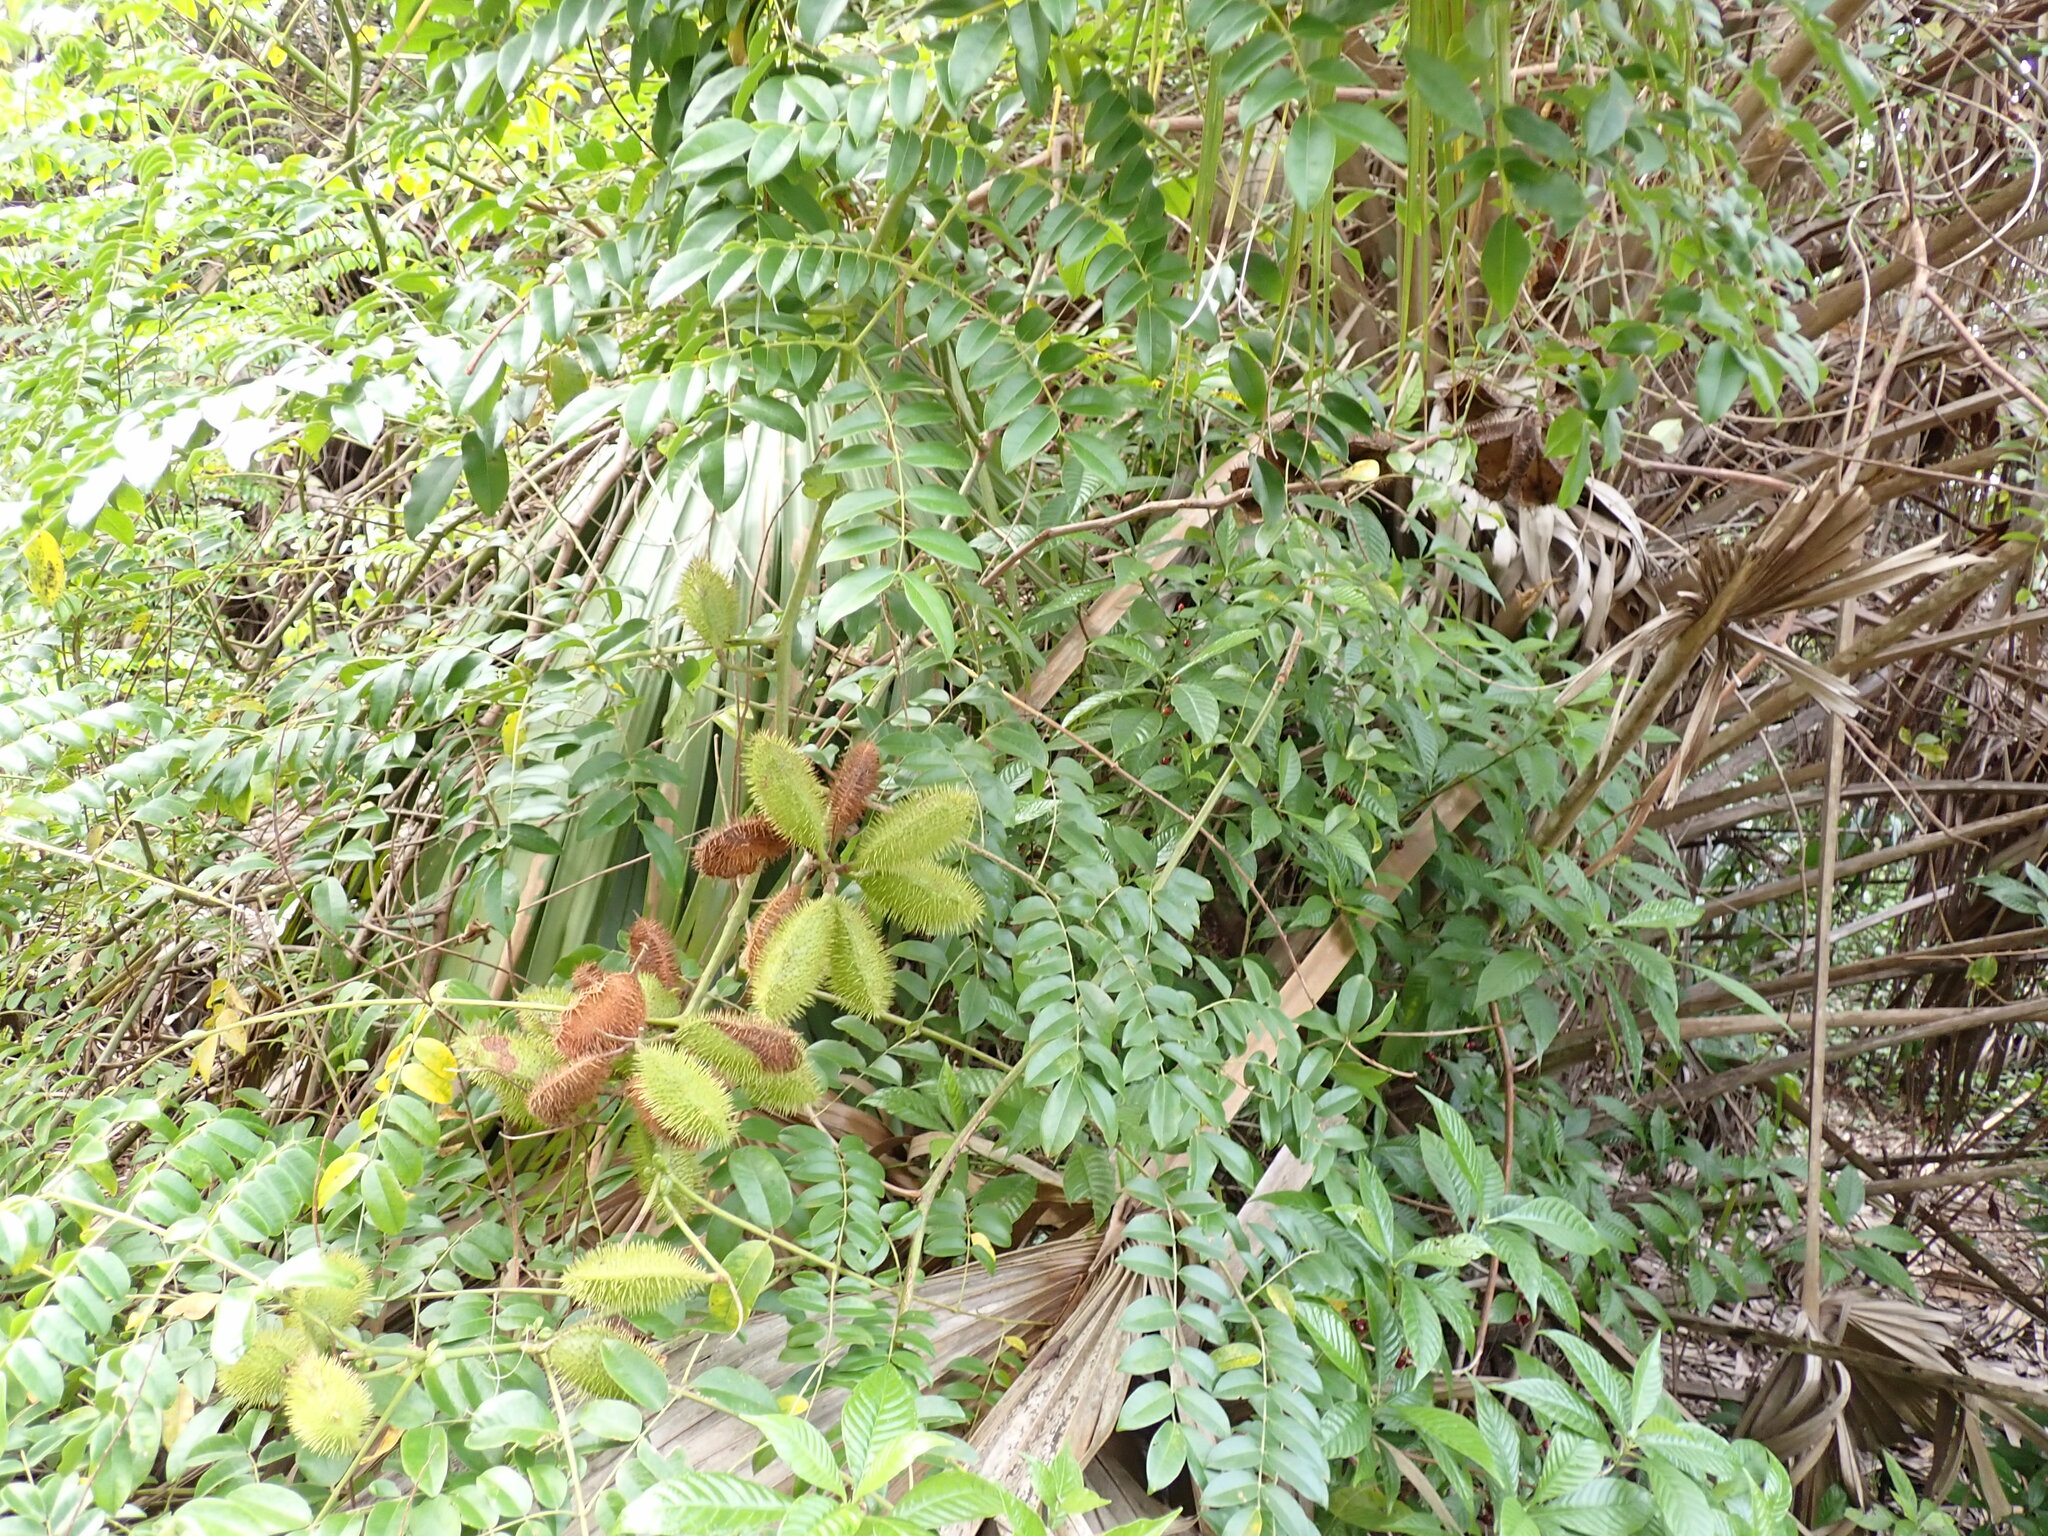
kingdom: Plantae
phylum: Tracheophyta
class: Magnoliopsida
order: Fabales
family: Fabaceae
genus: Guilandina
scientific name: Guilandina bonduc
